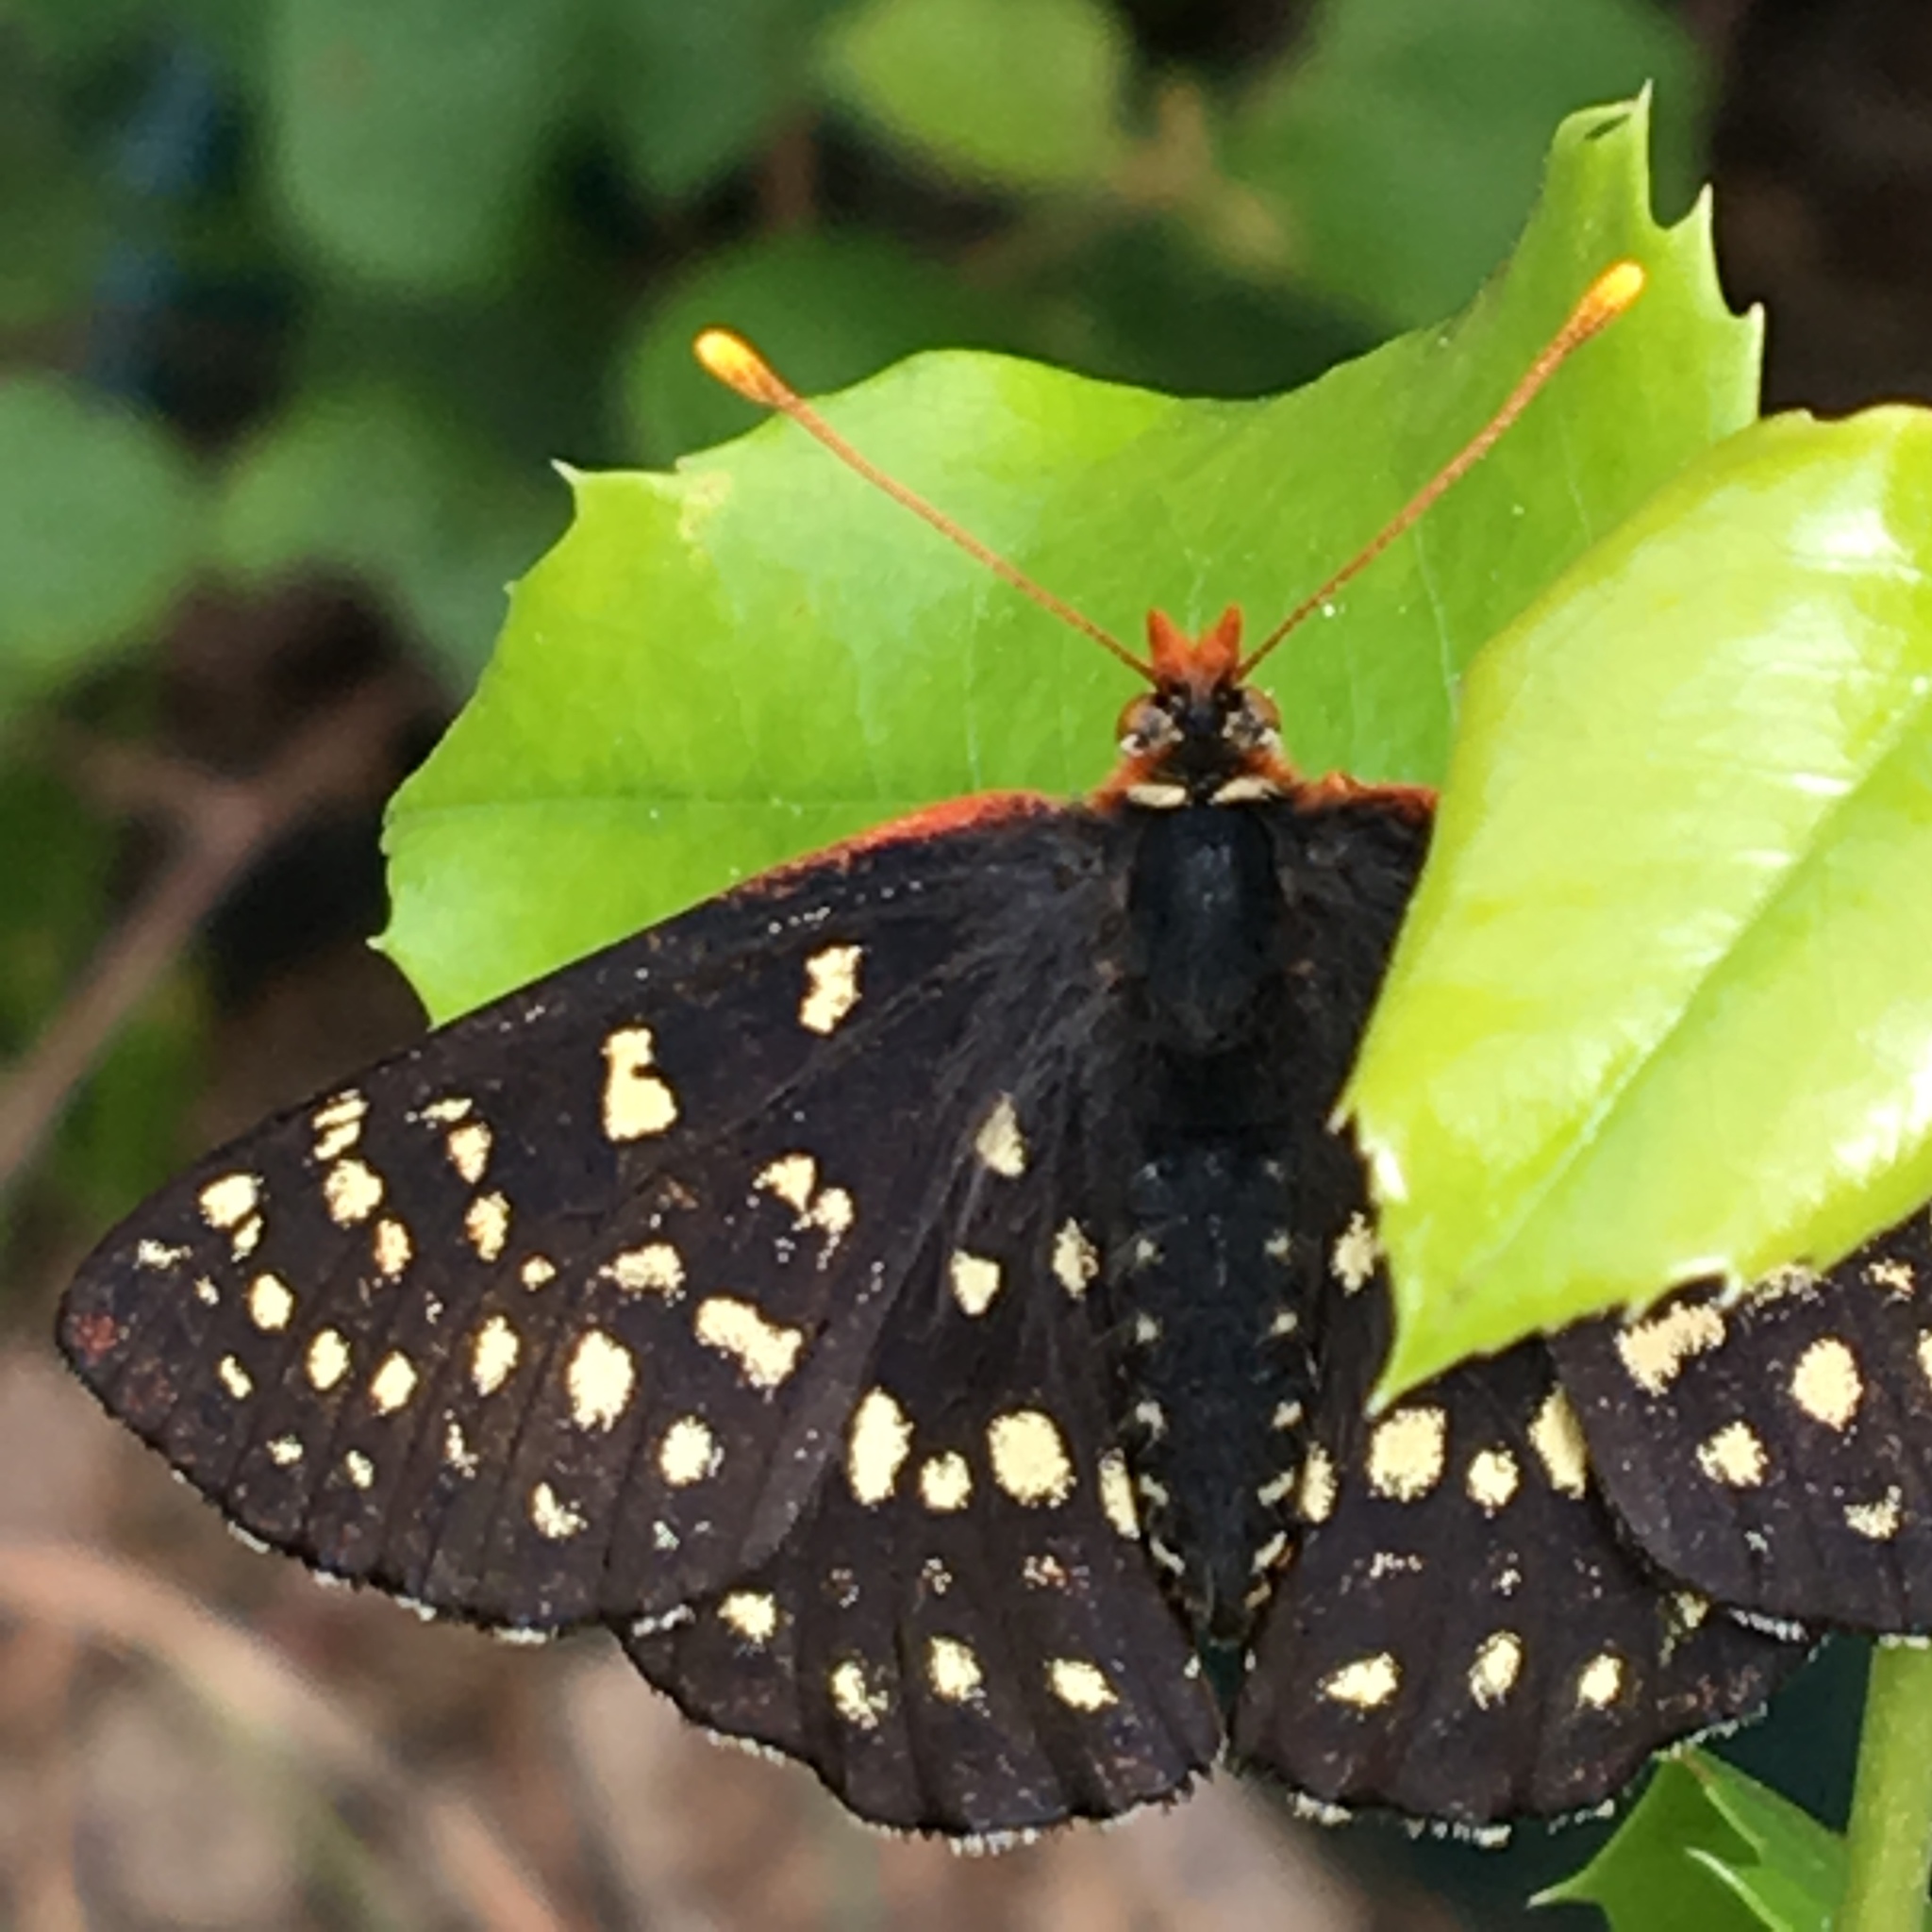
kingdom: Animalia
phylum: Arthropoda
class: Insecta
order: Lepidoptera
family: Nymphalidae
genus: Occidryas
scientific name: Occidryas chalcedona
